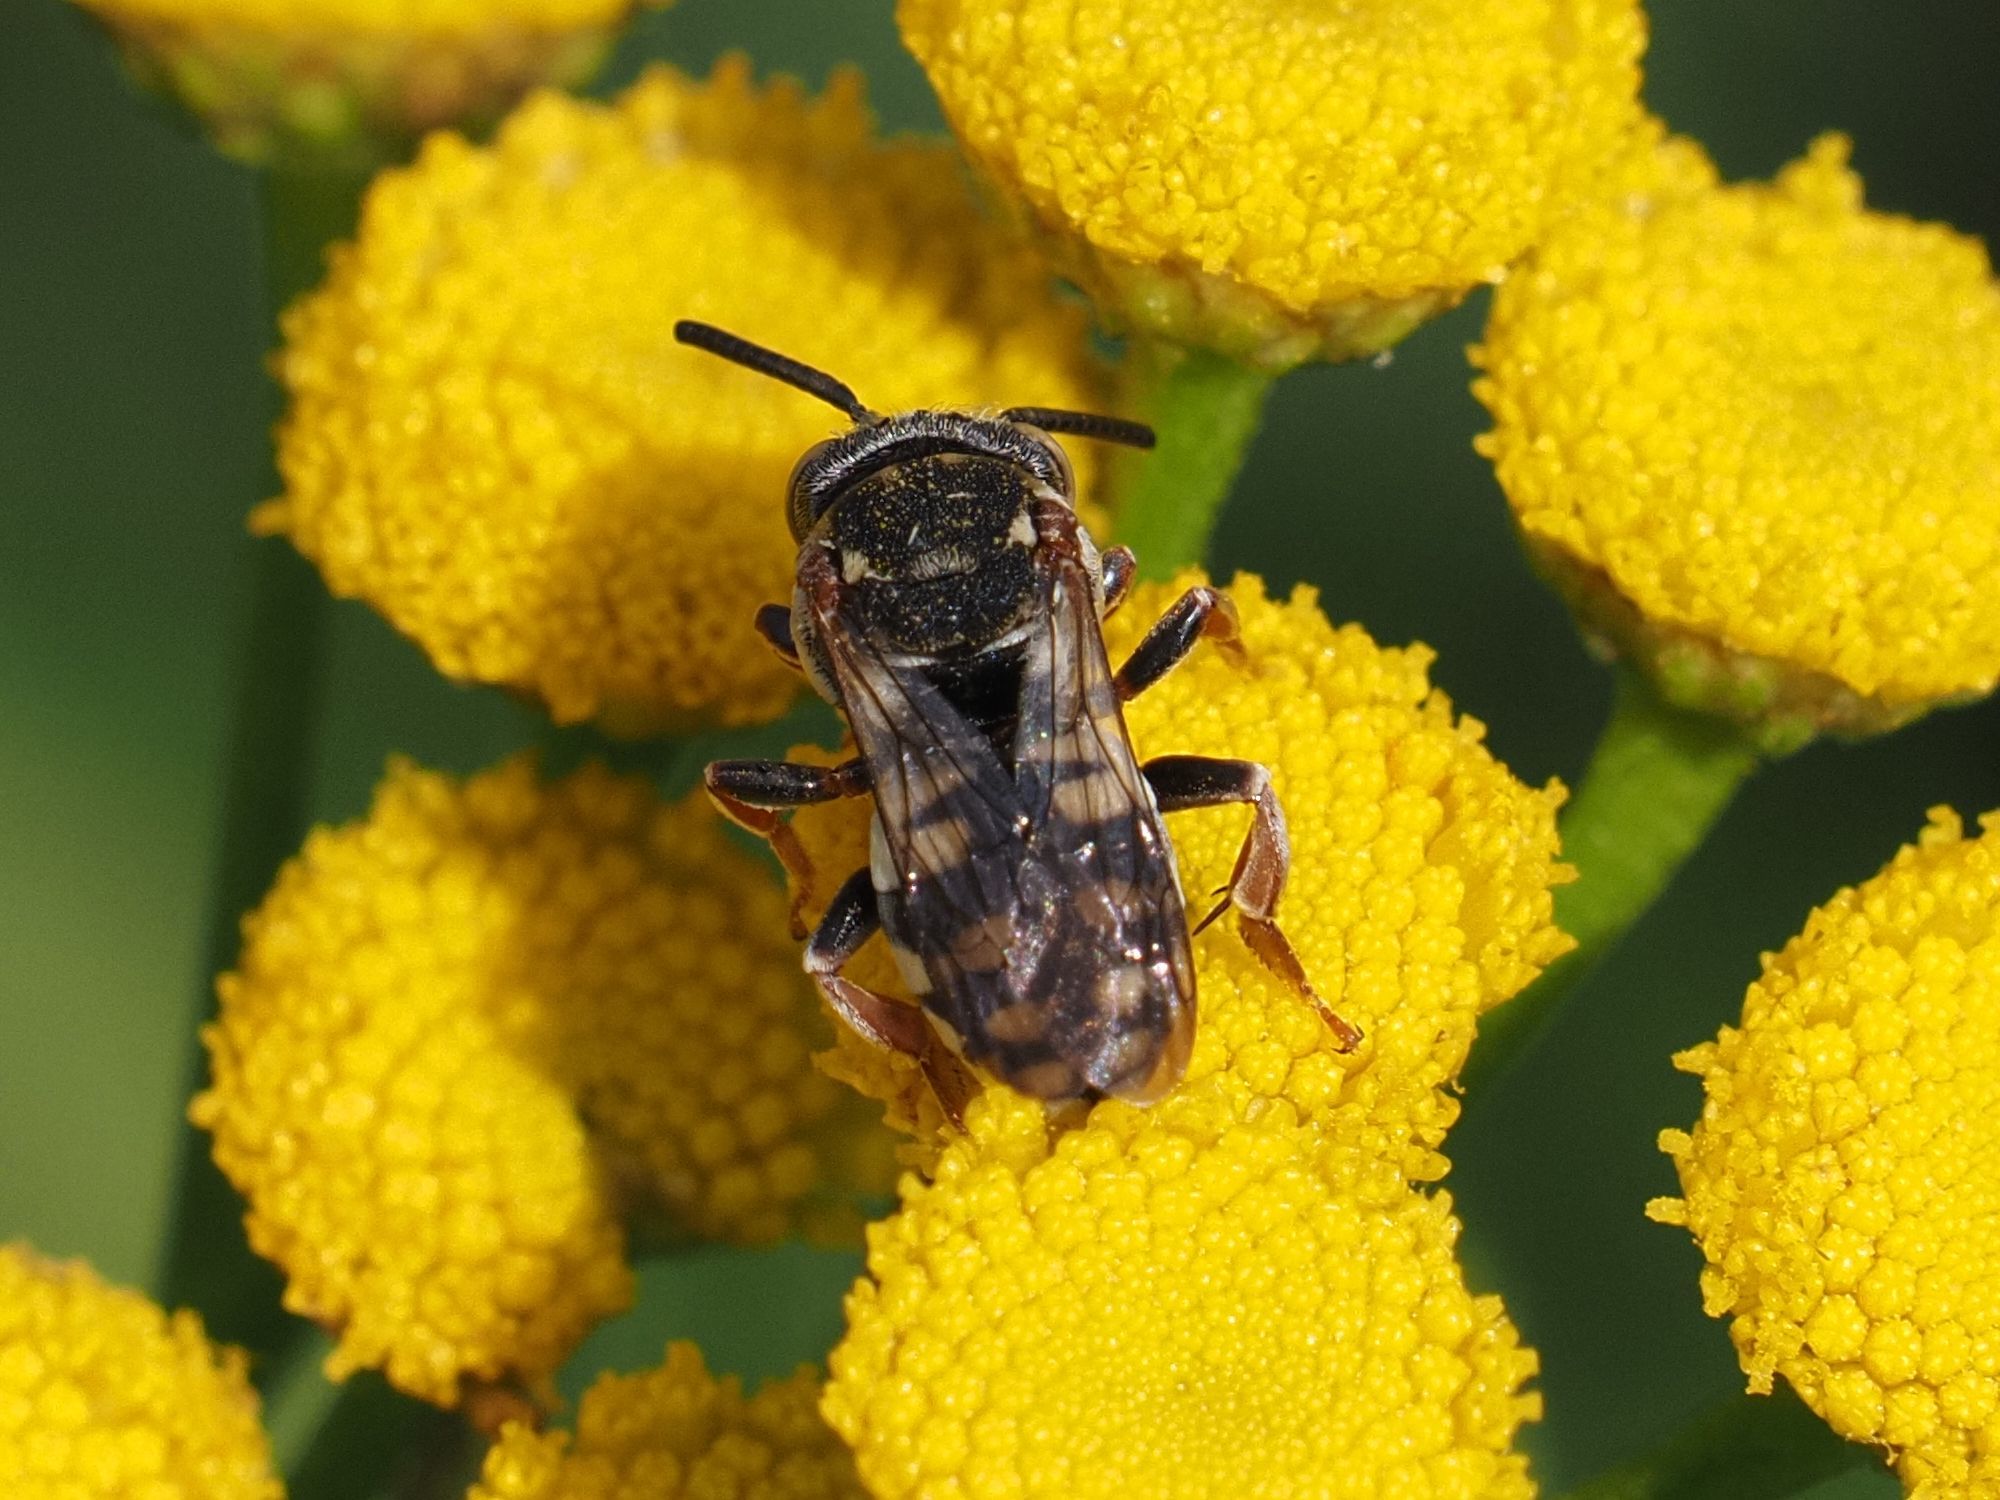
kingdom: Animalia
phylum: Arthropoda
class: Insecta
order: Hymenoptera
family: Apidae
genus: Epeolus
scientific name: Epeolus variegatus
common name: Black-thighed epeolus
